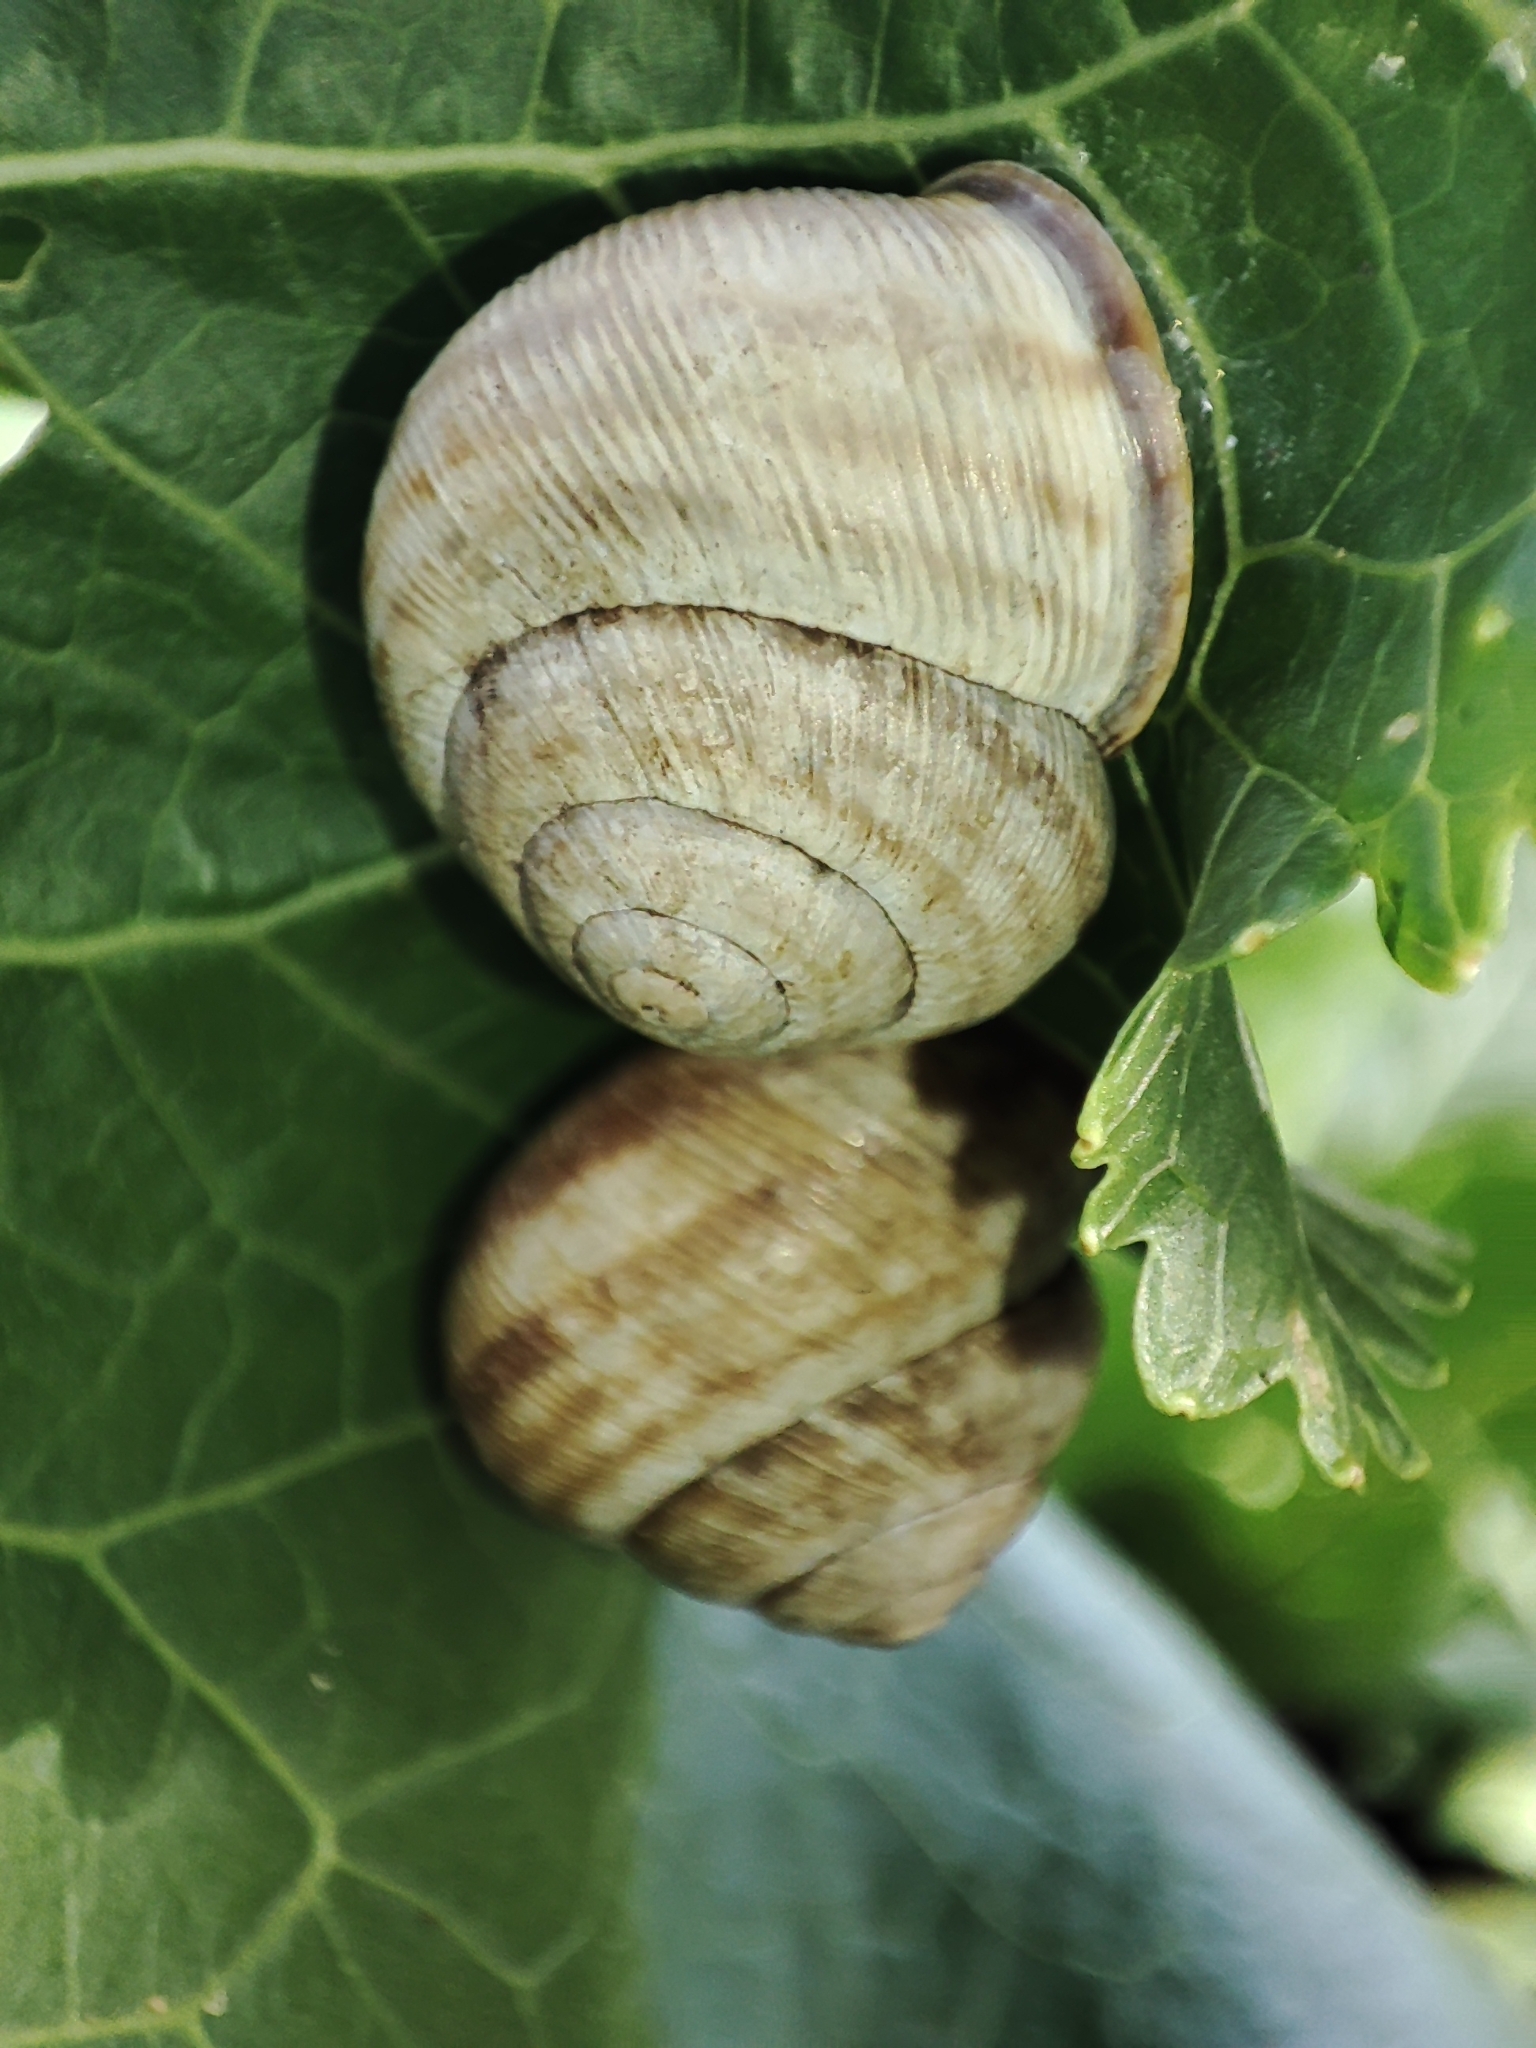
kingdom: Animalia
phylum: Mollusca
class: Gastropoda
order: Stylommatophora
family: Helicidae
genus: Caucasotachea
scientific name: Caucasotachea vindobonensis
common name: European helicid land snail
